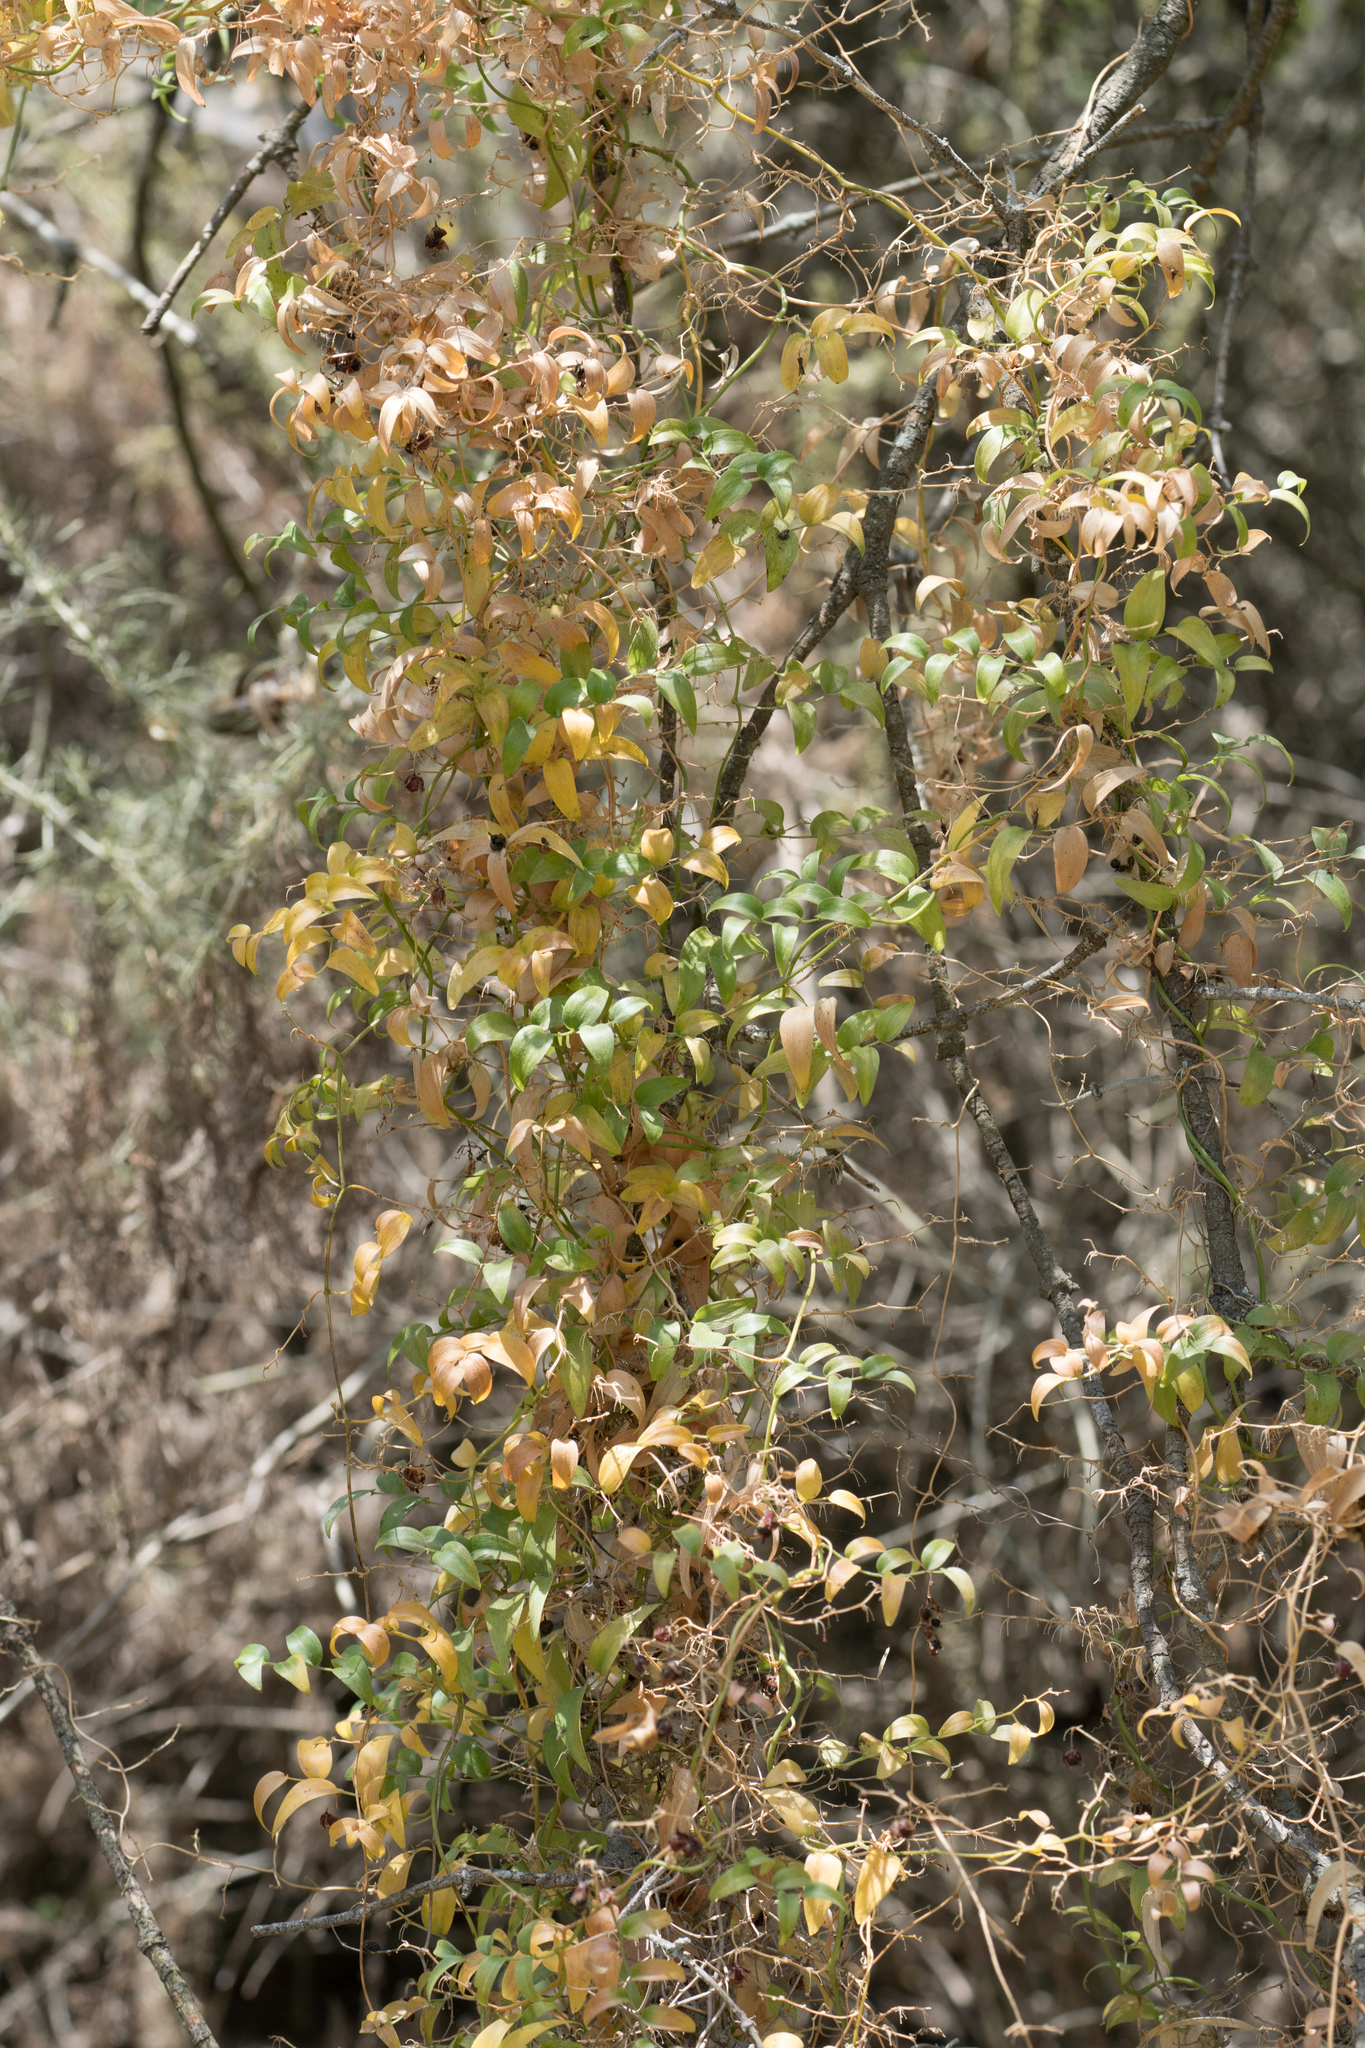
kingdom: Plantae
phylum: Tracheophyta
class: Liliopsida
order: Asparagales
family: Asparagaceae
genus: Asparagus
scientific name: Asparagus asparagoides
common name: African asparagus fern
